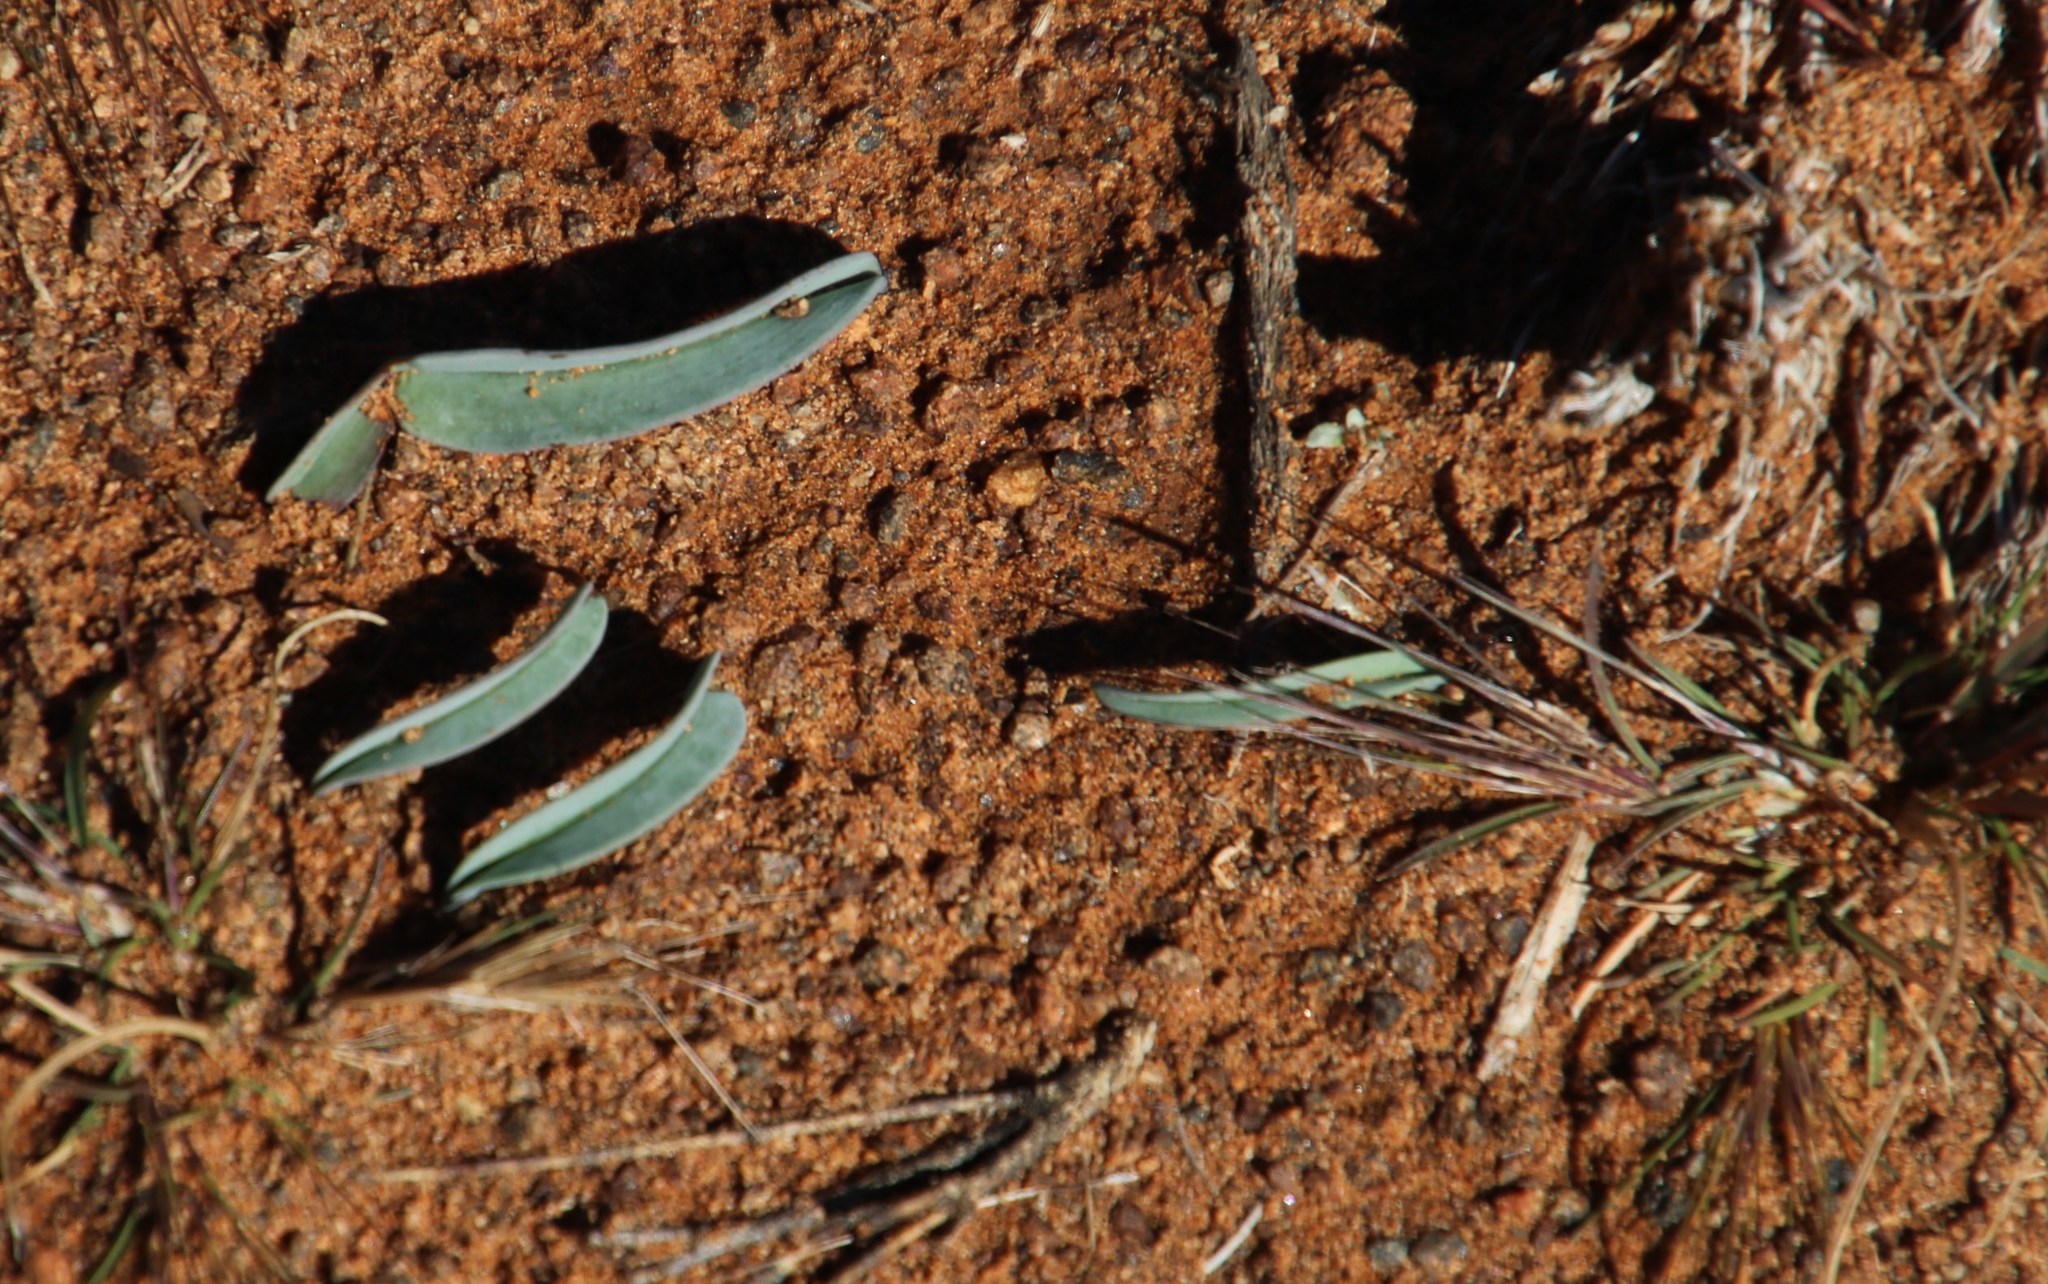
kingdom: Plantae
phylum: Tracheophyta
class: Liliopsida
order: Asparagales
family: Asparagaceae
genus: Eriospermum
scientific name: Eriospermum exile
